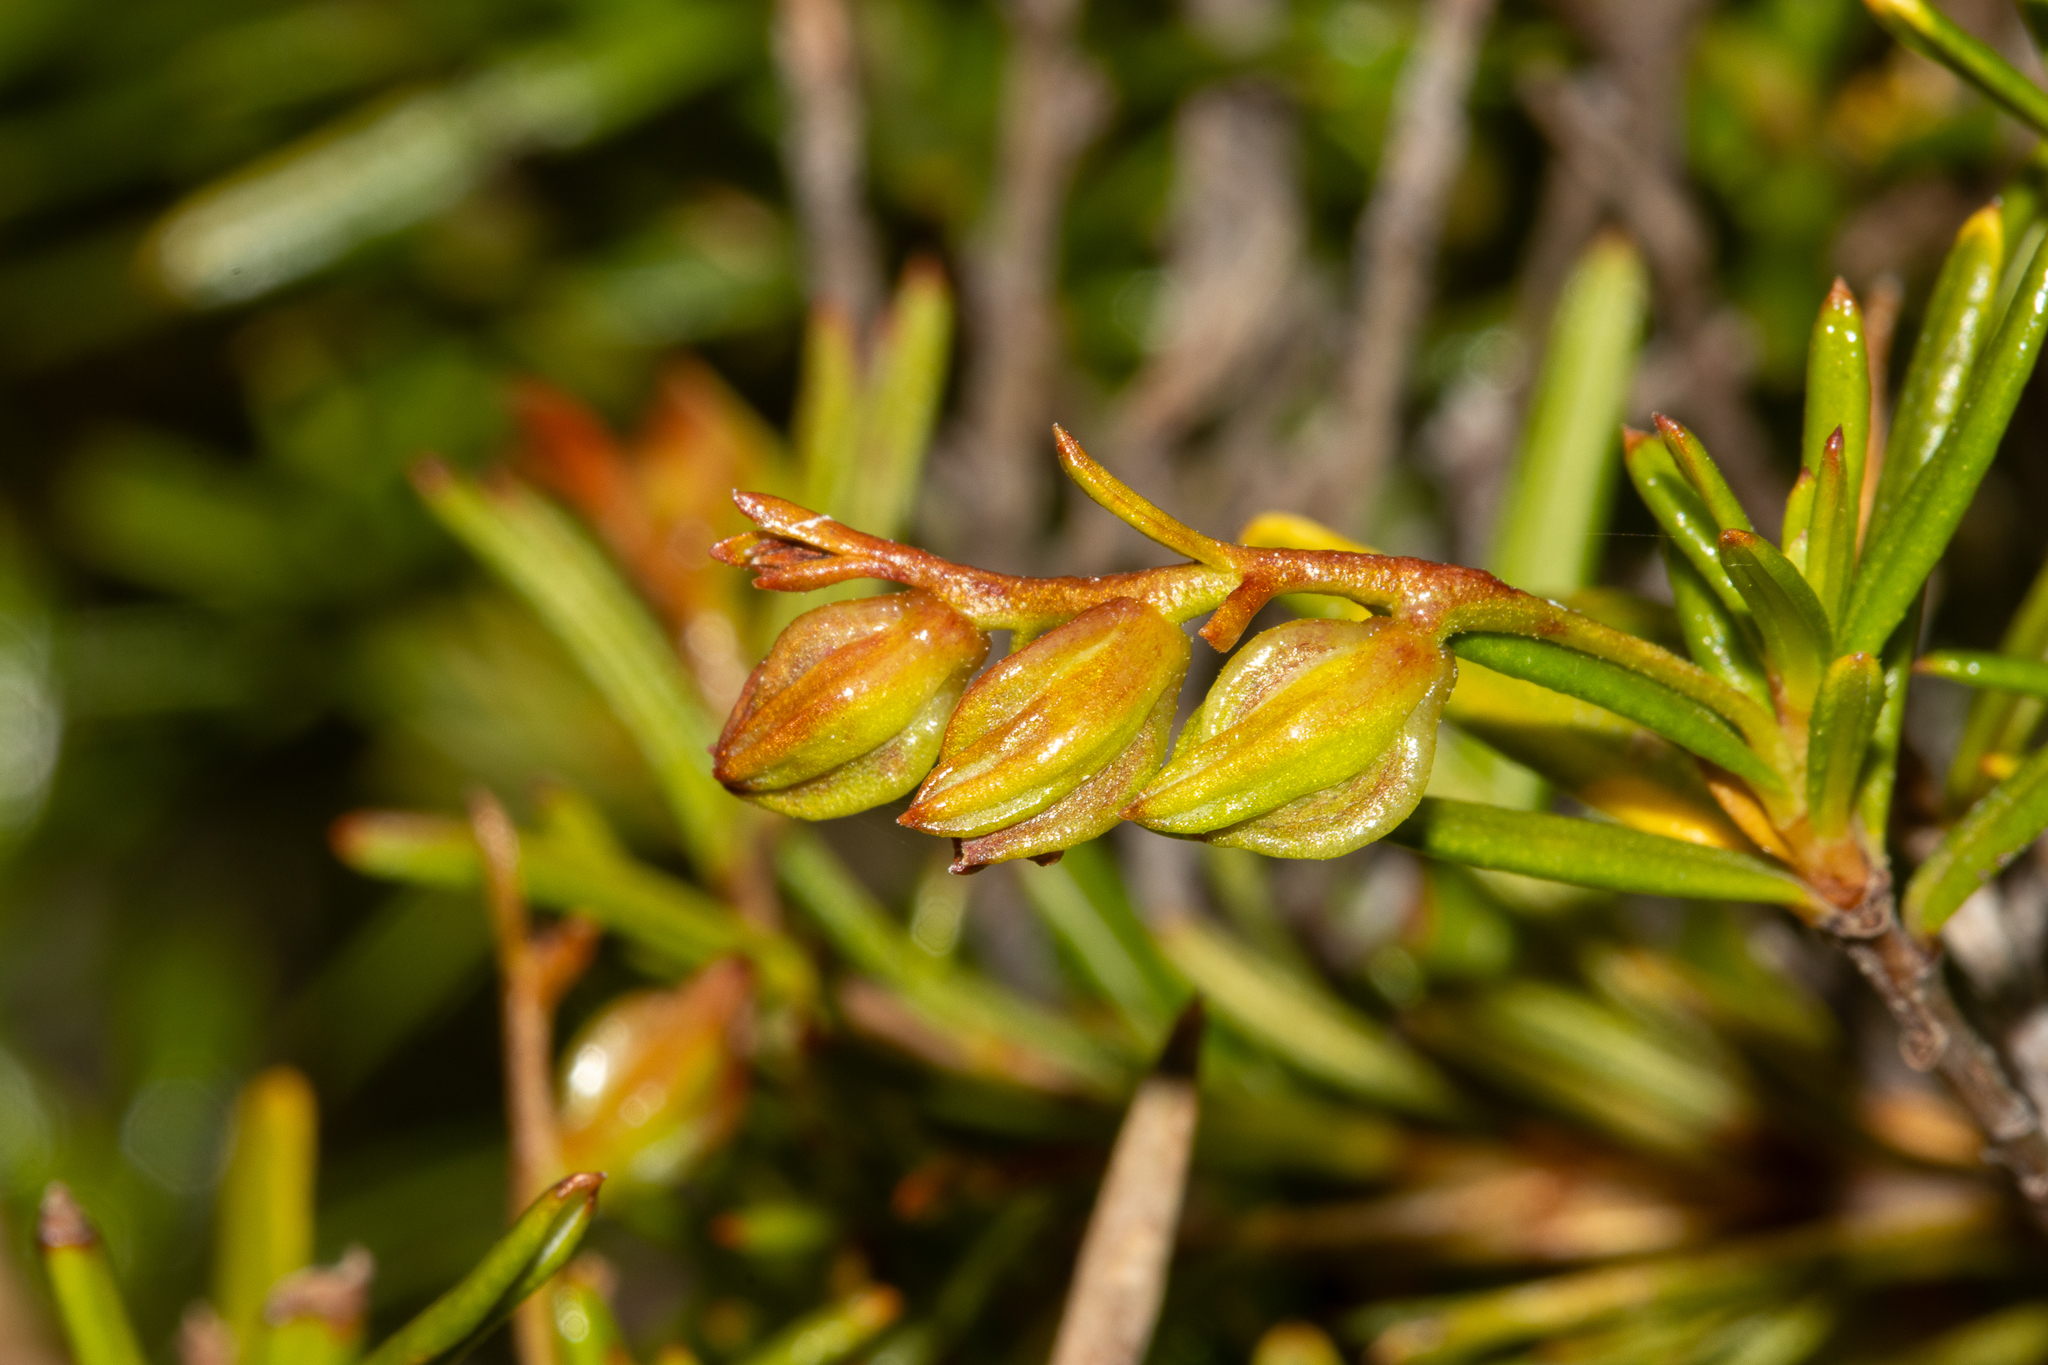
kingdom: Plantae
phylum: Tracheophyta
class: Magnoliopsida
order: Dilleniales
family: Dilleniaceae
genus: Hibbertia
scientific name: Hibbertia leptotheca
